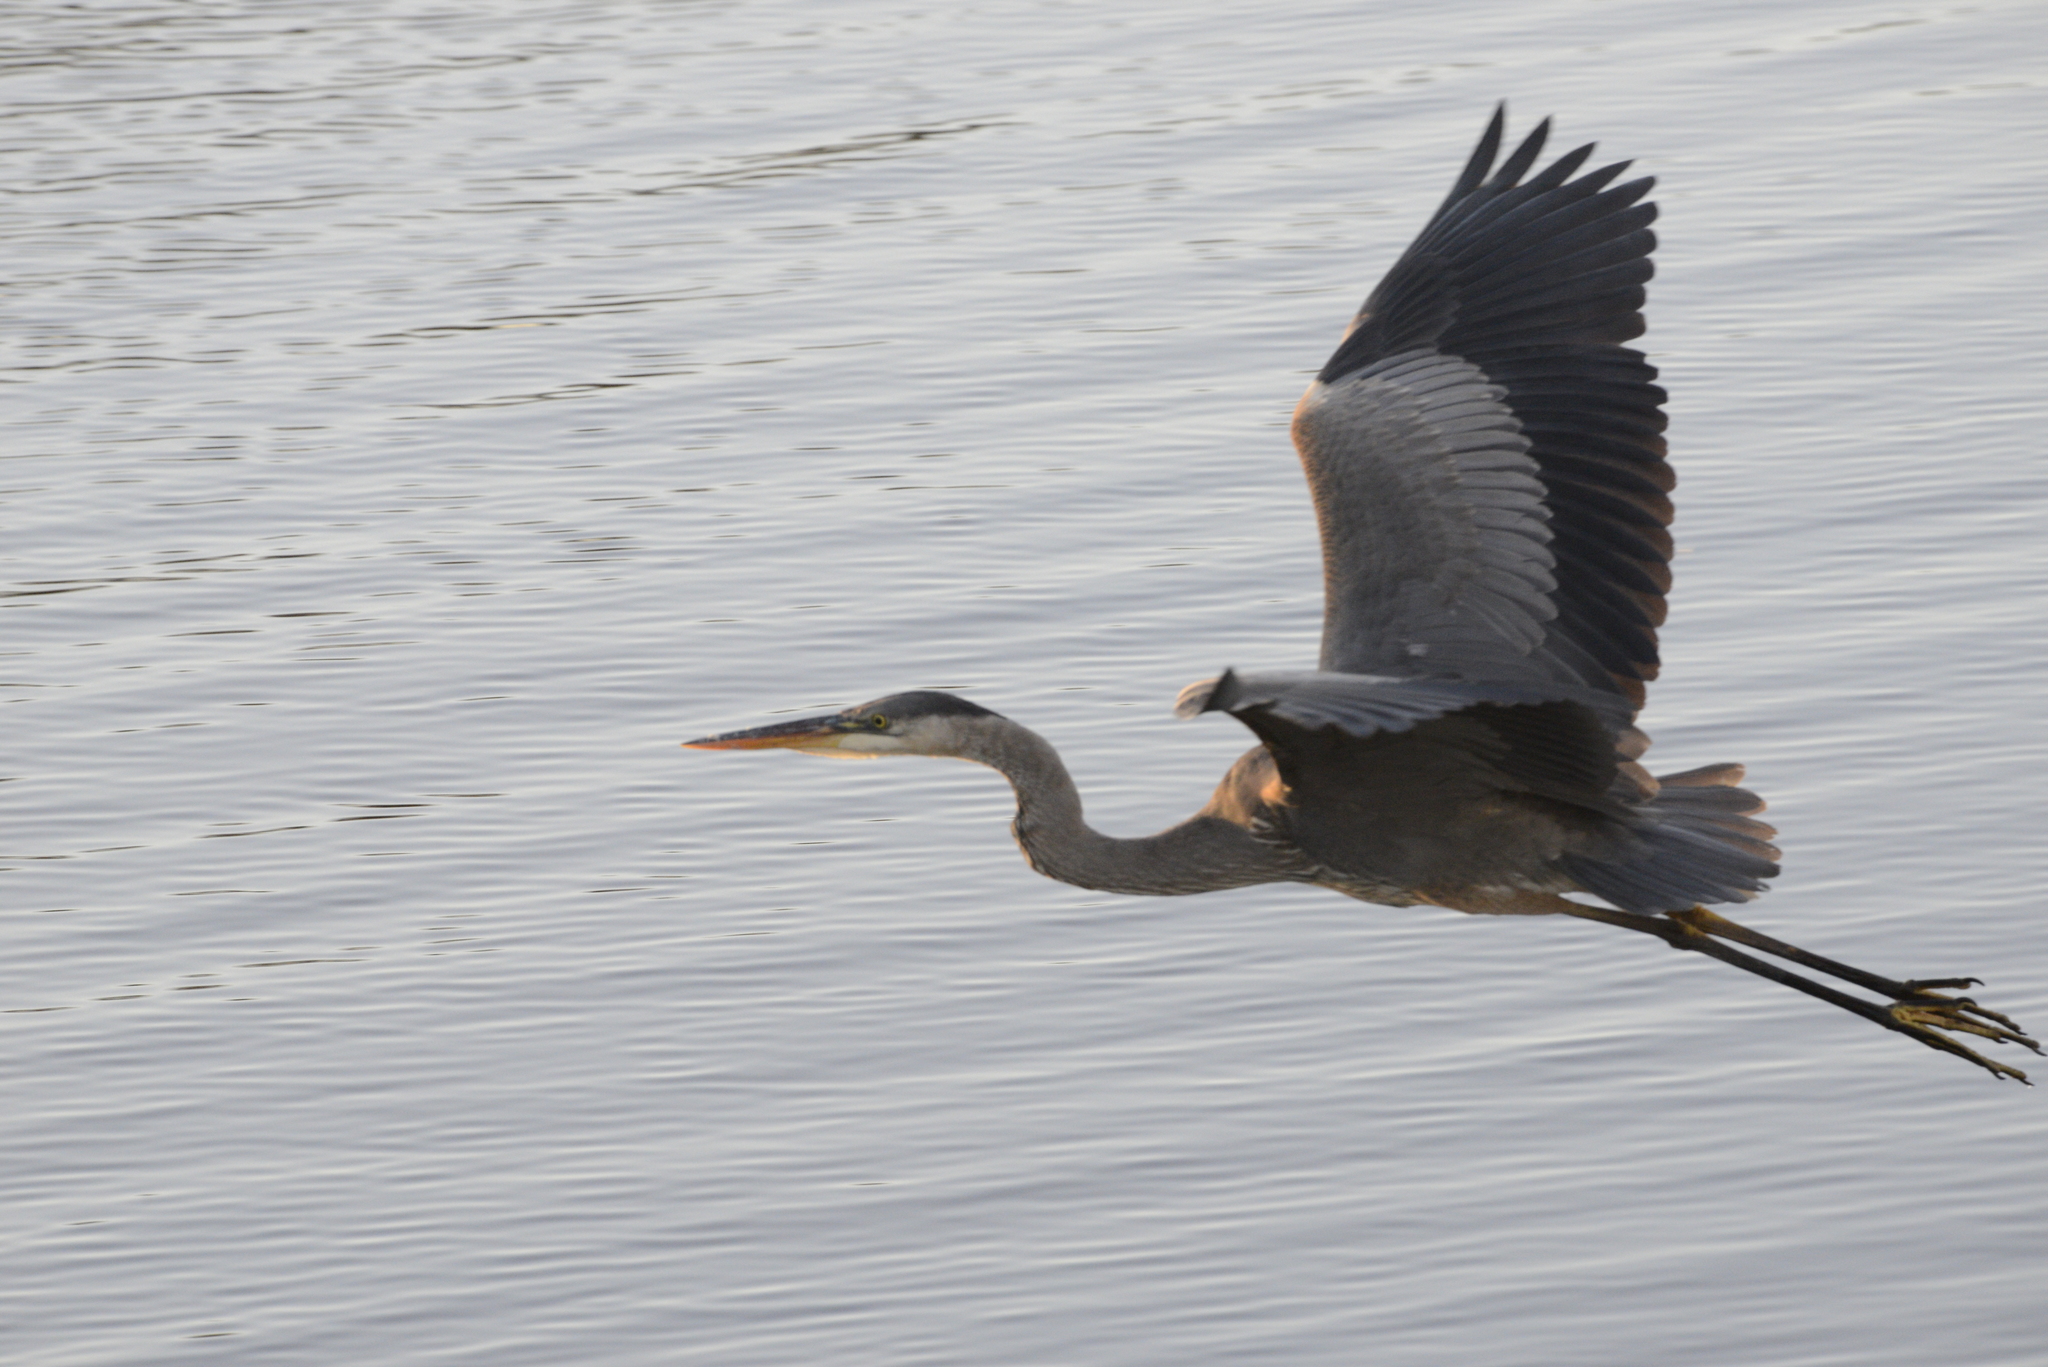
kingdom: Animalia
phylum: Chordata
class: Aves
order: Pelecaniformes
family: Ardeidae
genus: Ardea
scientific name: Ardea herodias
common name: Great blue heron
